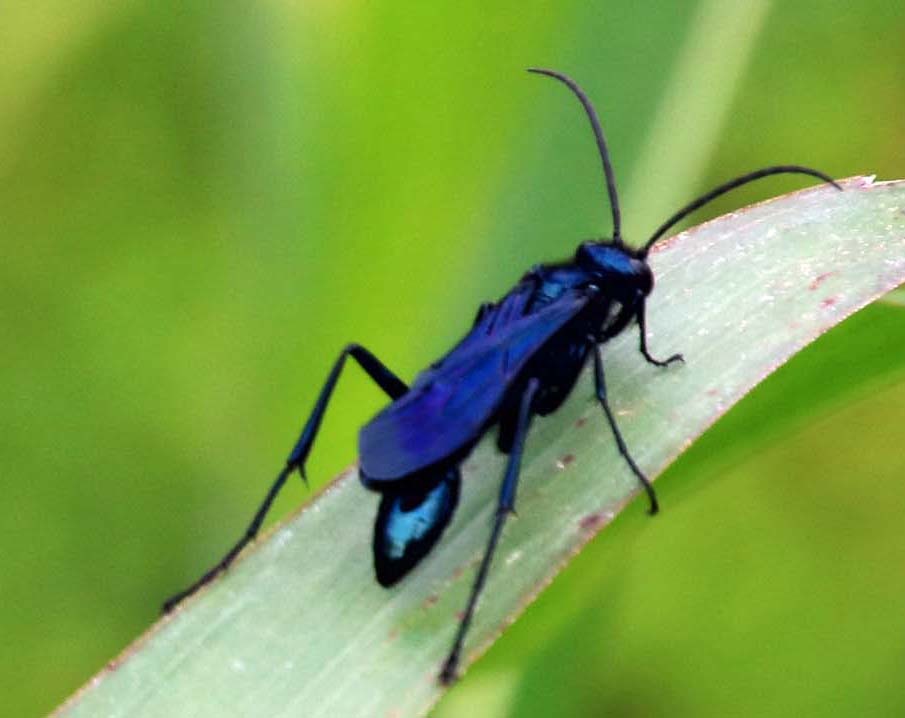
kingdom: Animalia
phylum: Arthropoda
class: Insecta
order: Hymenoptera
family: Sphecidae
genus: Chalybion
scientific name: Chalybion californicum
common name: Mud dauber
